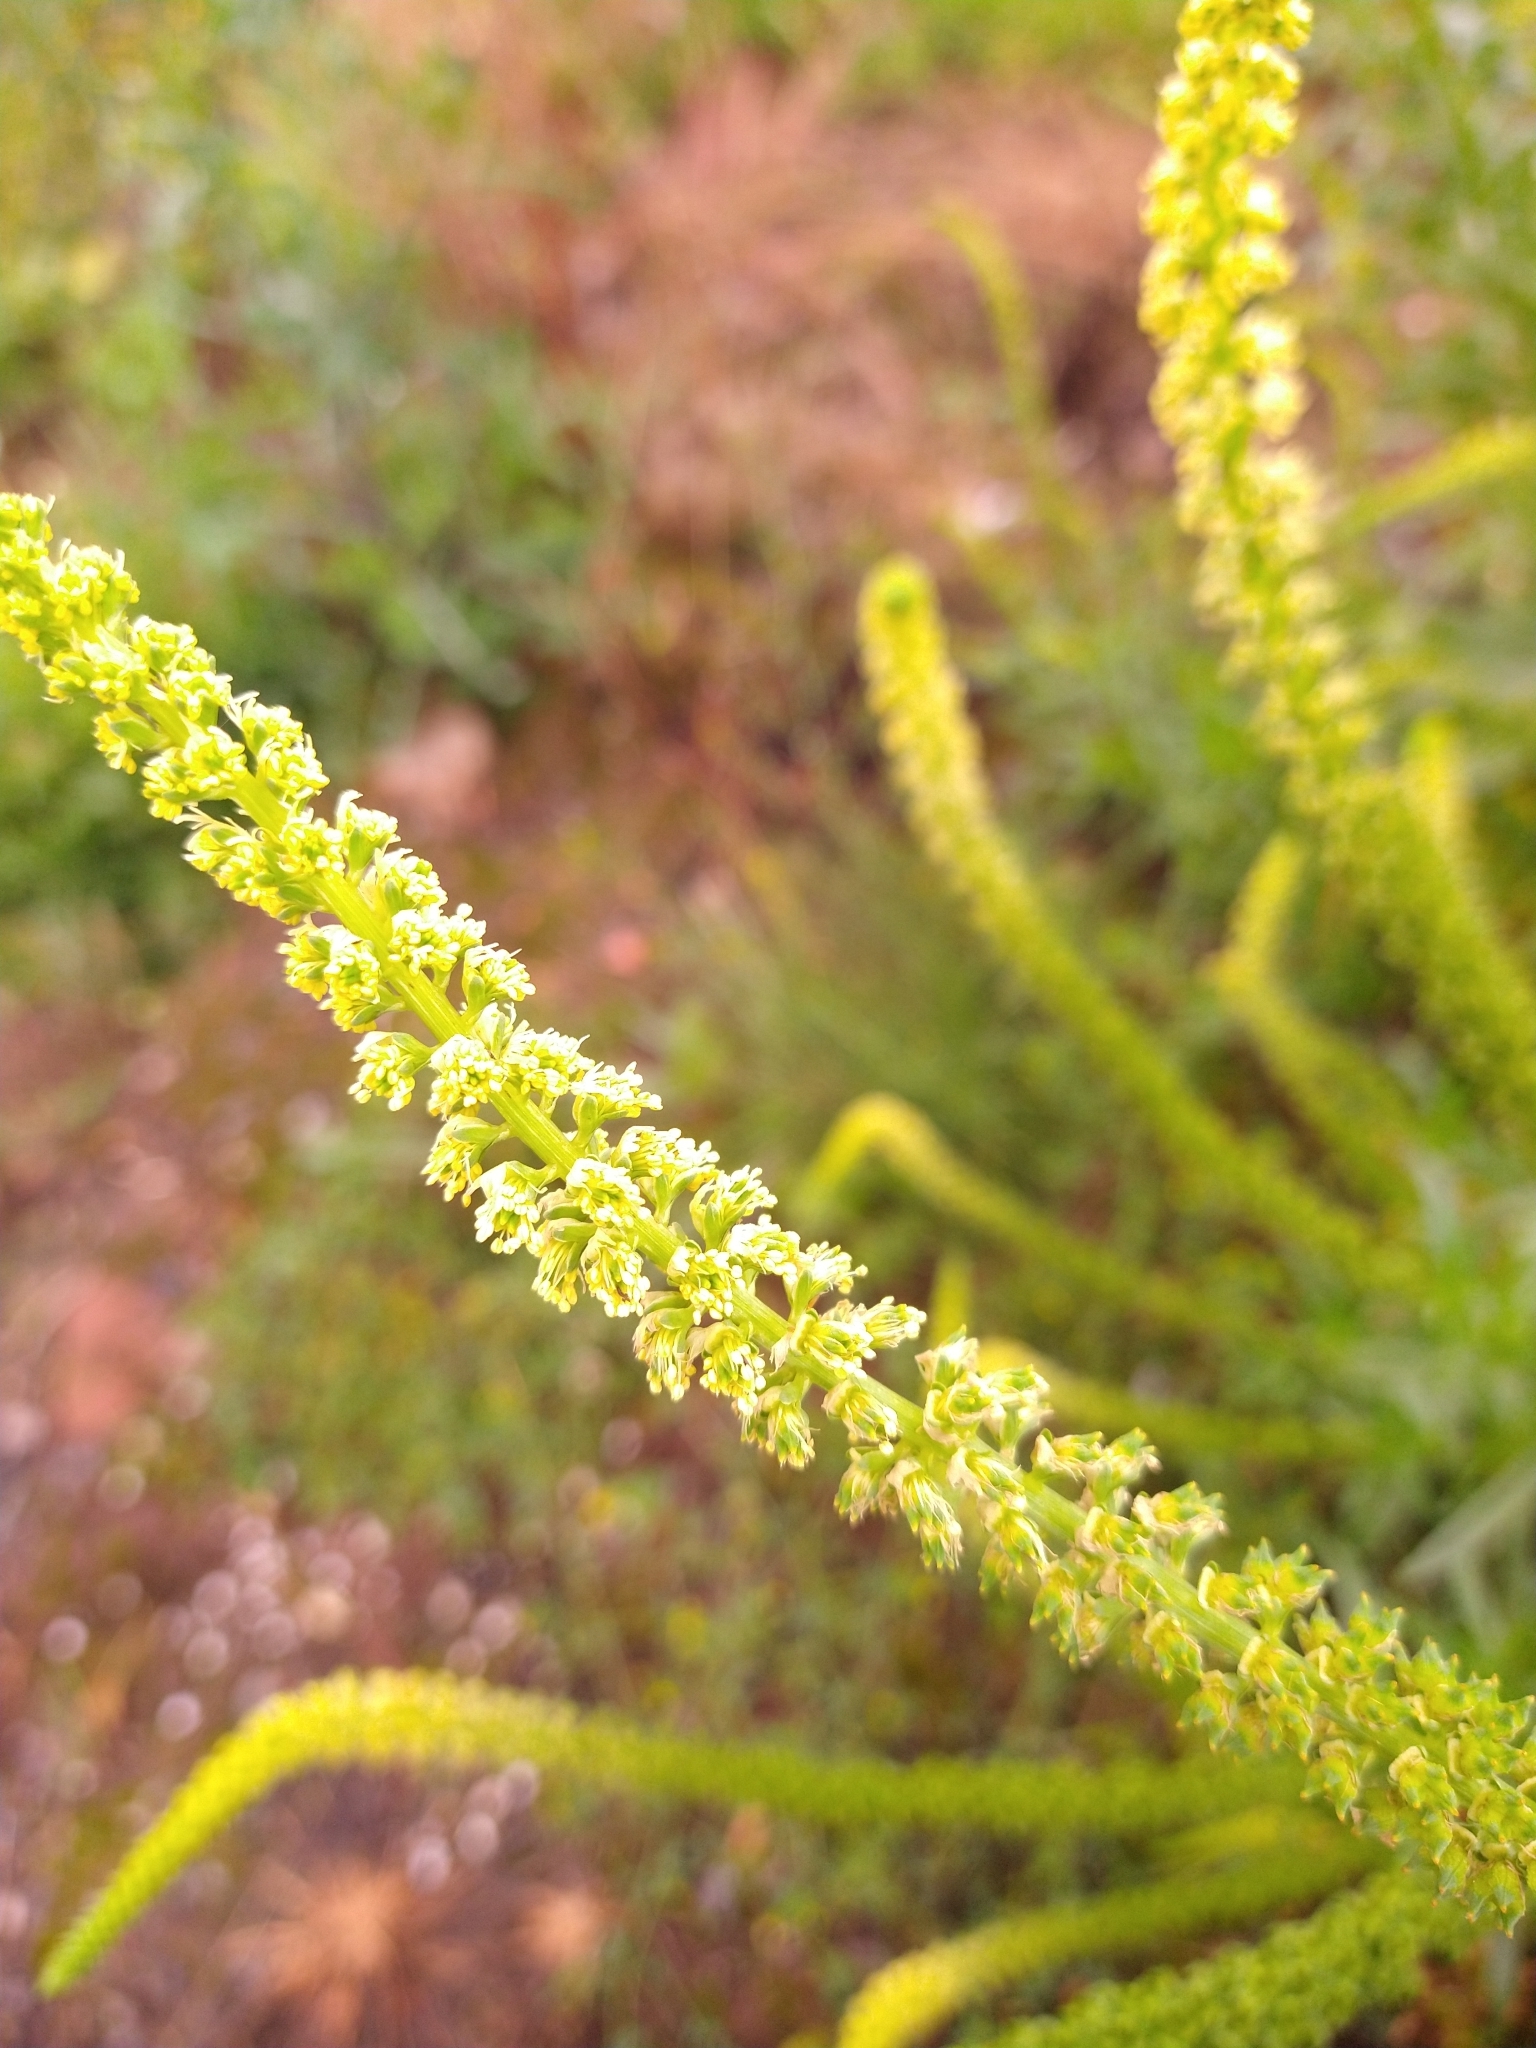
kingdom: Plantae
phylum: Tracheophyta
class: Magnoliopsida
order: Brassicales
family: Resedaceae
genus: Reseda
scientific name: Reseda luteola
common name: Weld
